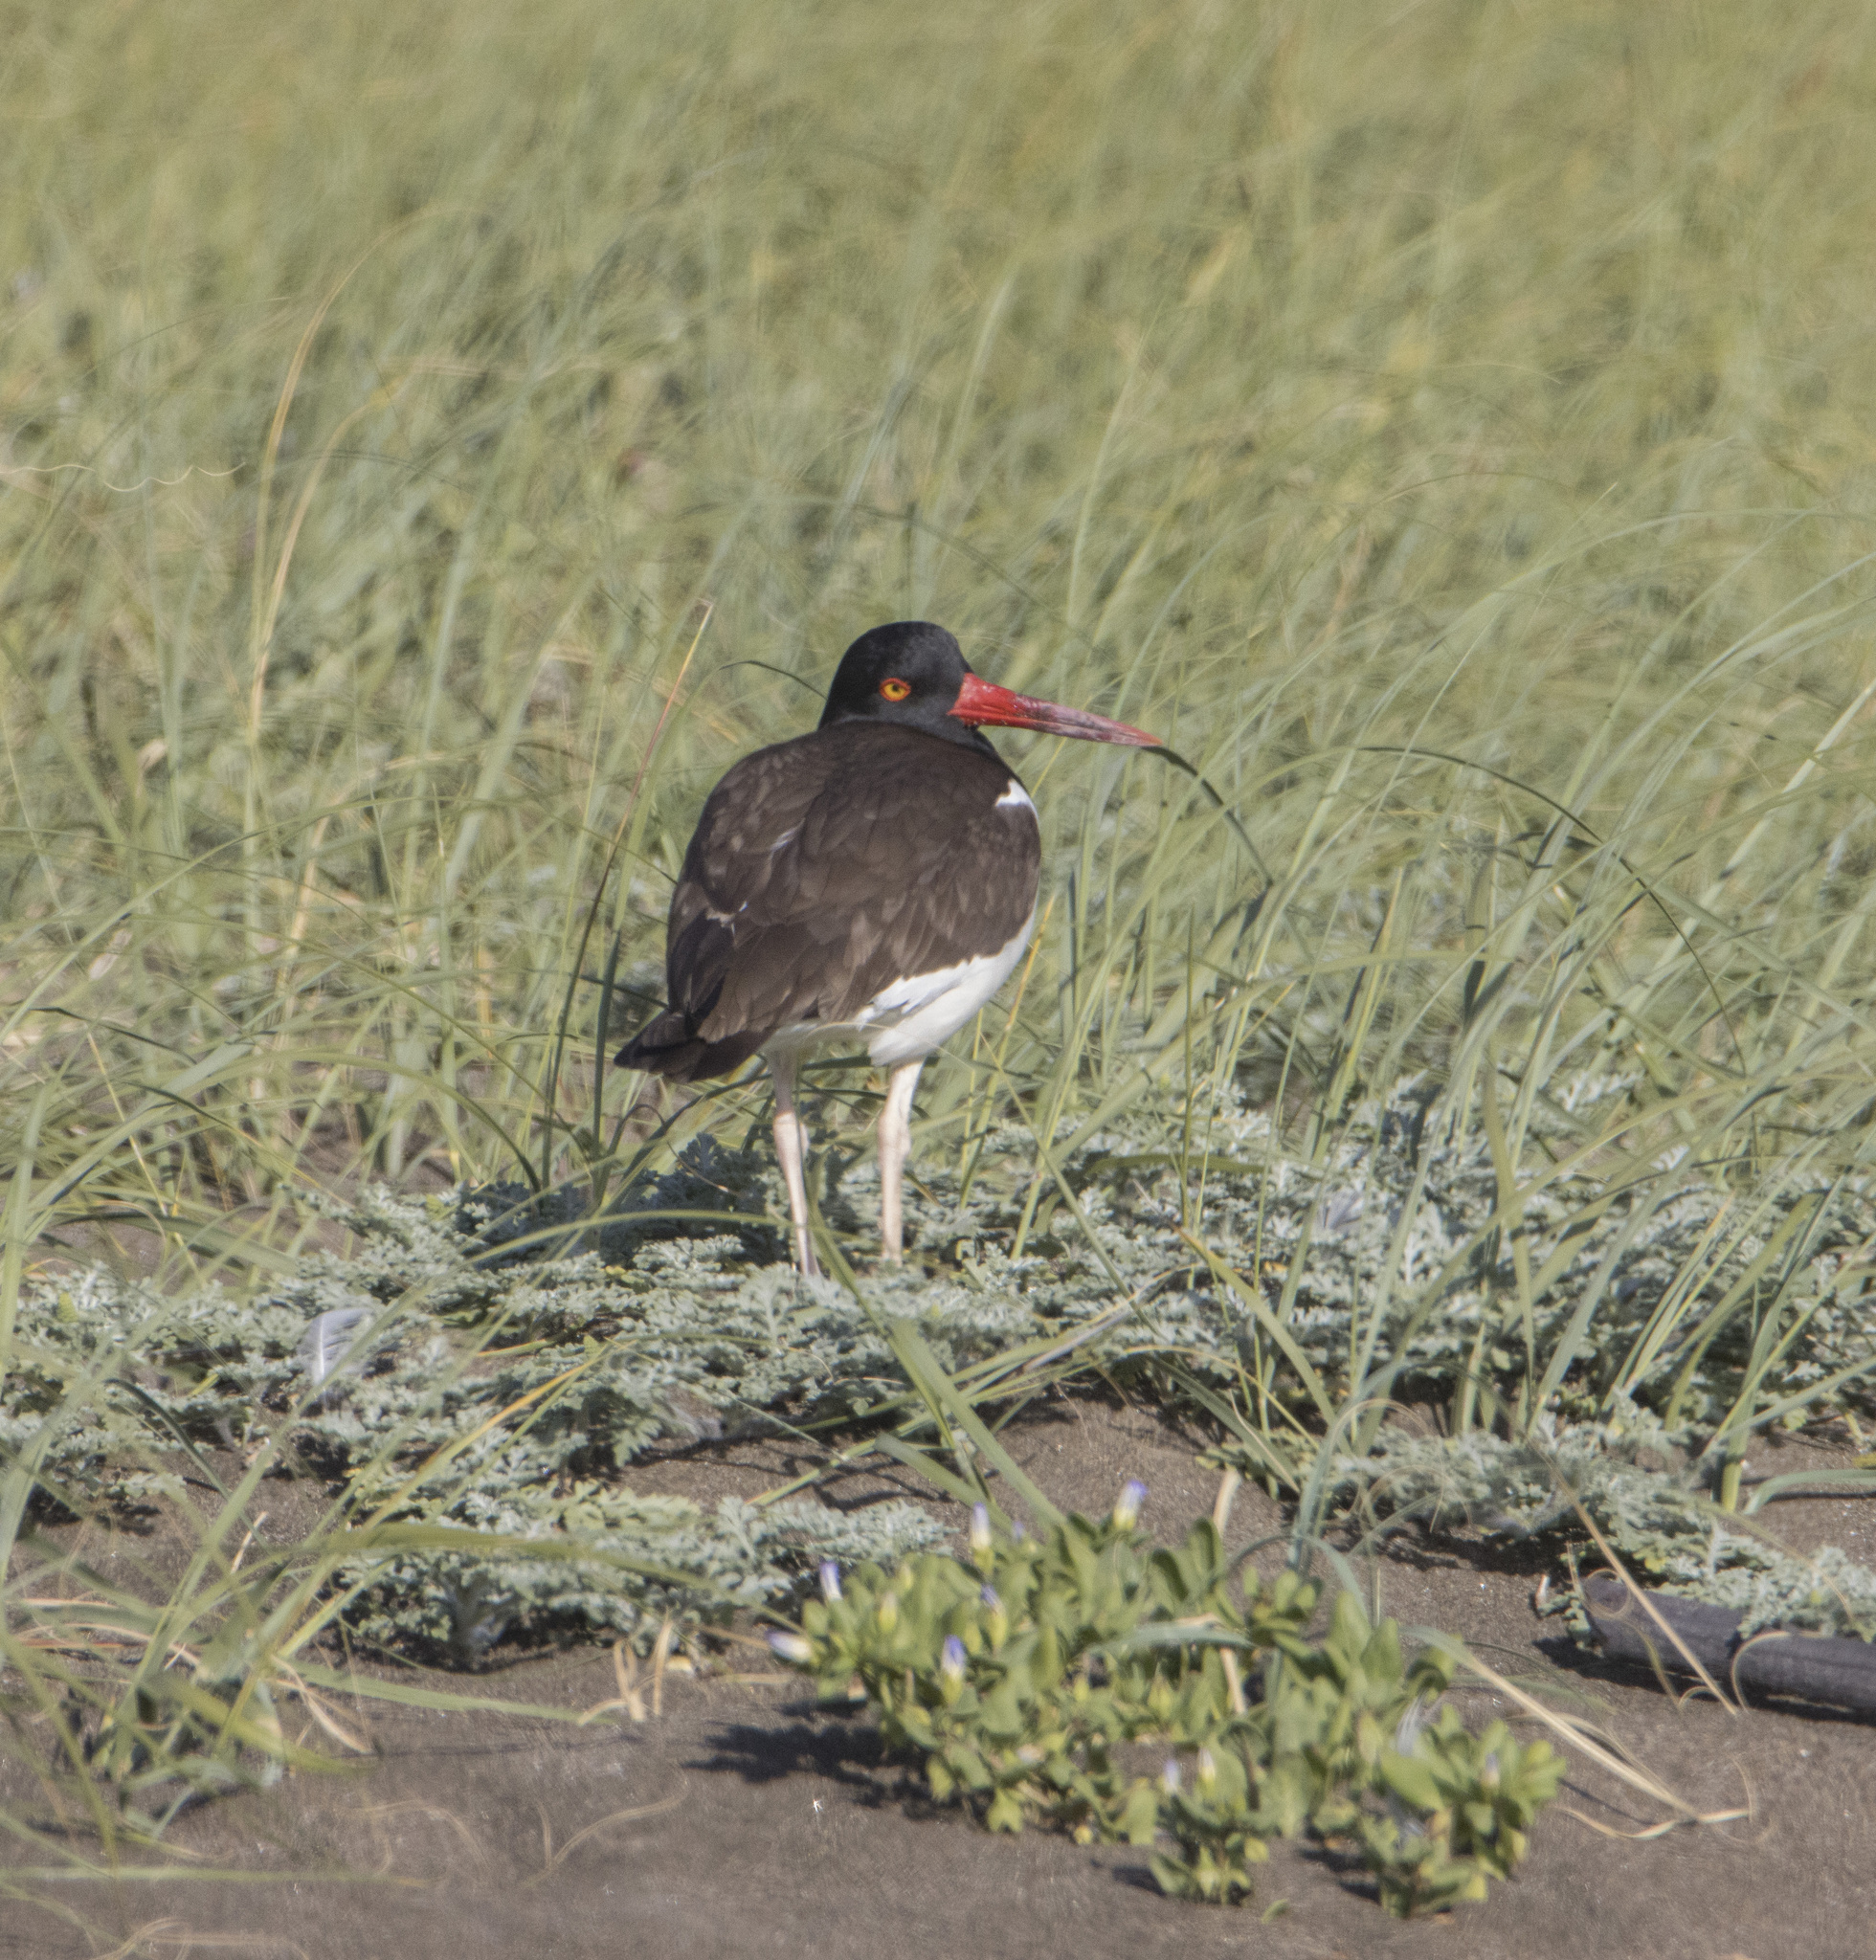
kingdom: Animalia
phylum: Chordata
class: Aves
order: Charadriiformes
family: Haematopodidae
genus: Haematopus
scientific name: Haematopus palliatus
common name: American oystercatcher
